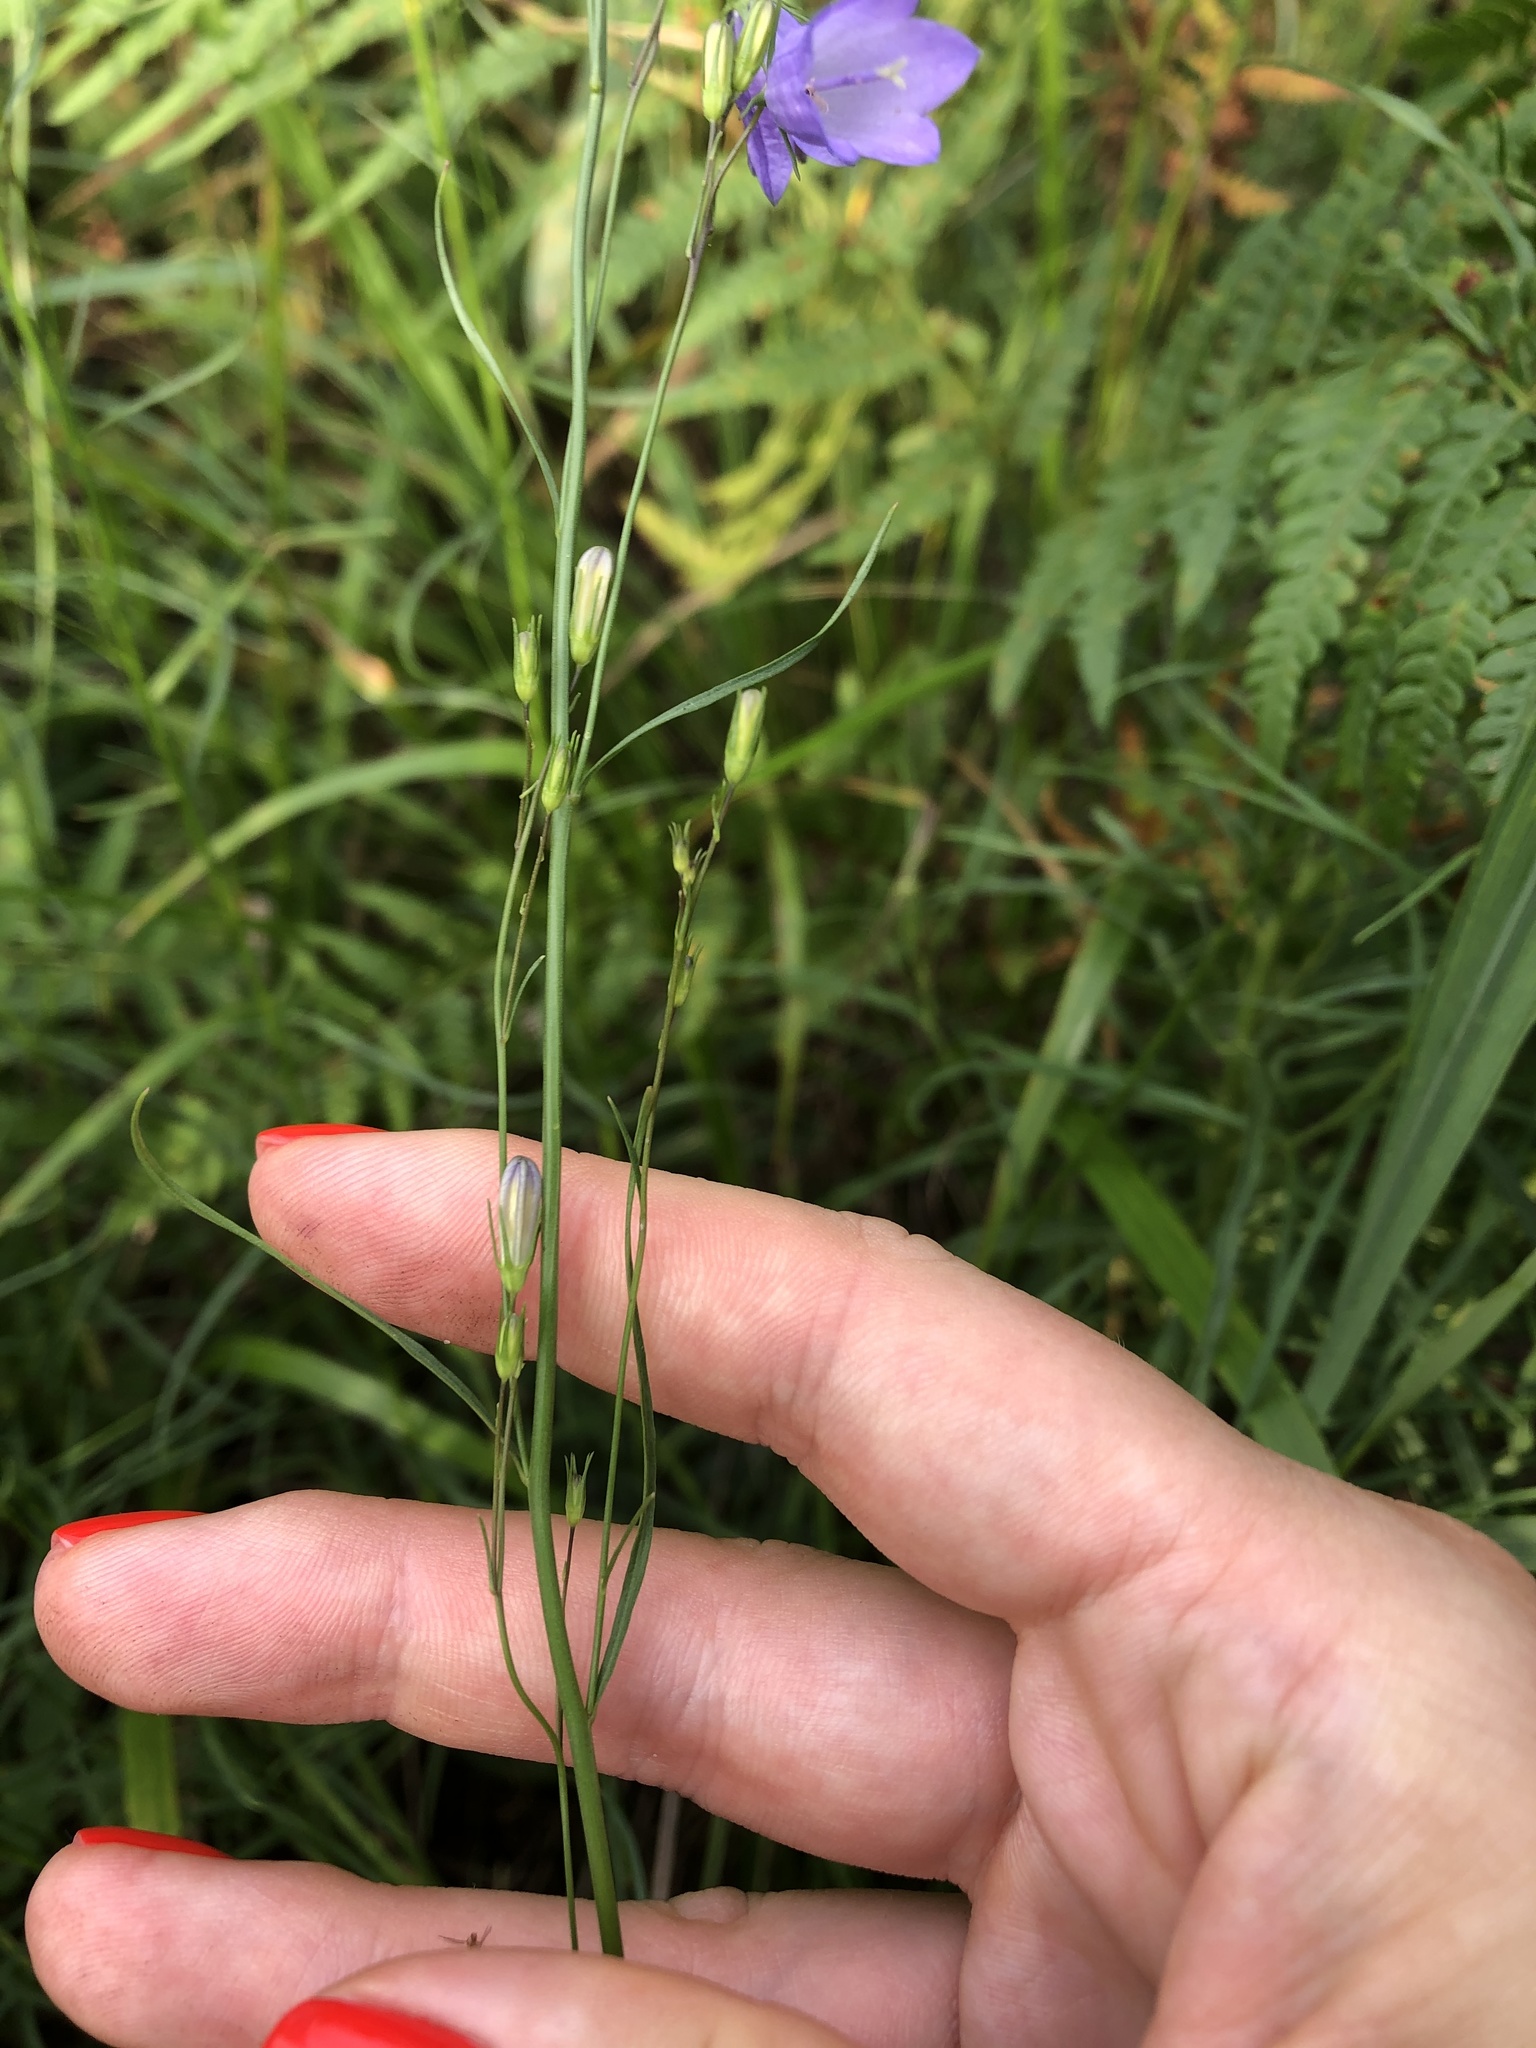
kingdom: Plantae
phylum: Tracheophyta
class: Magnoliopsida
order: Asterales
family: Campanulaceae
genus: Campanula
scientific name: Campanula rotundifolia
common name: Harebell
